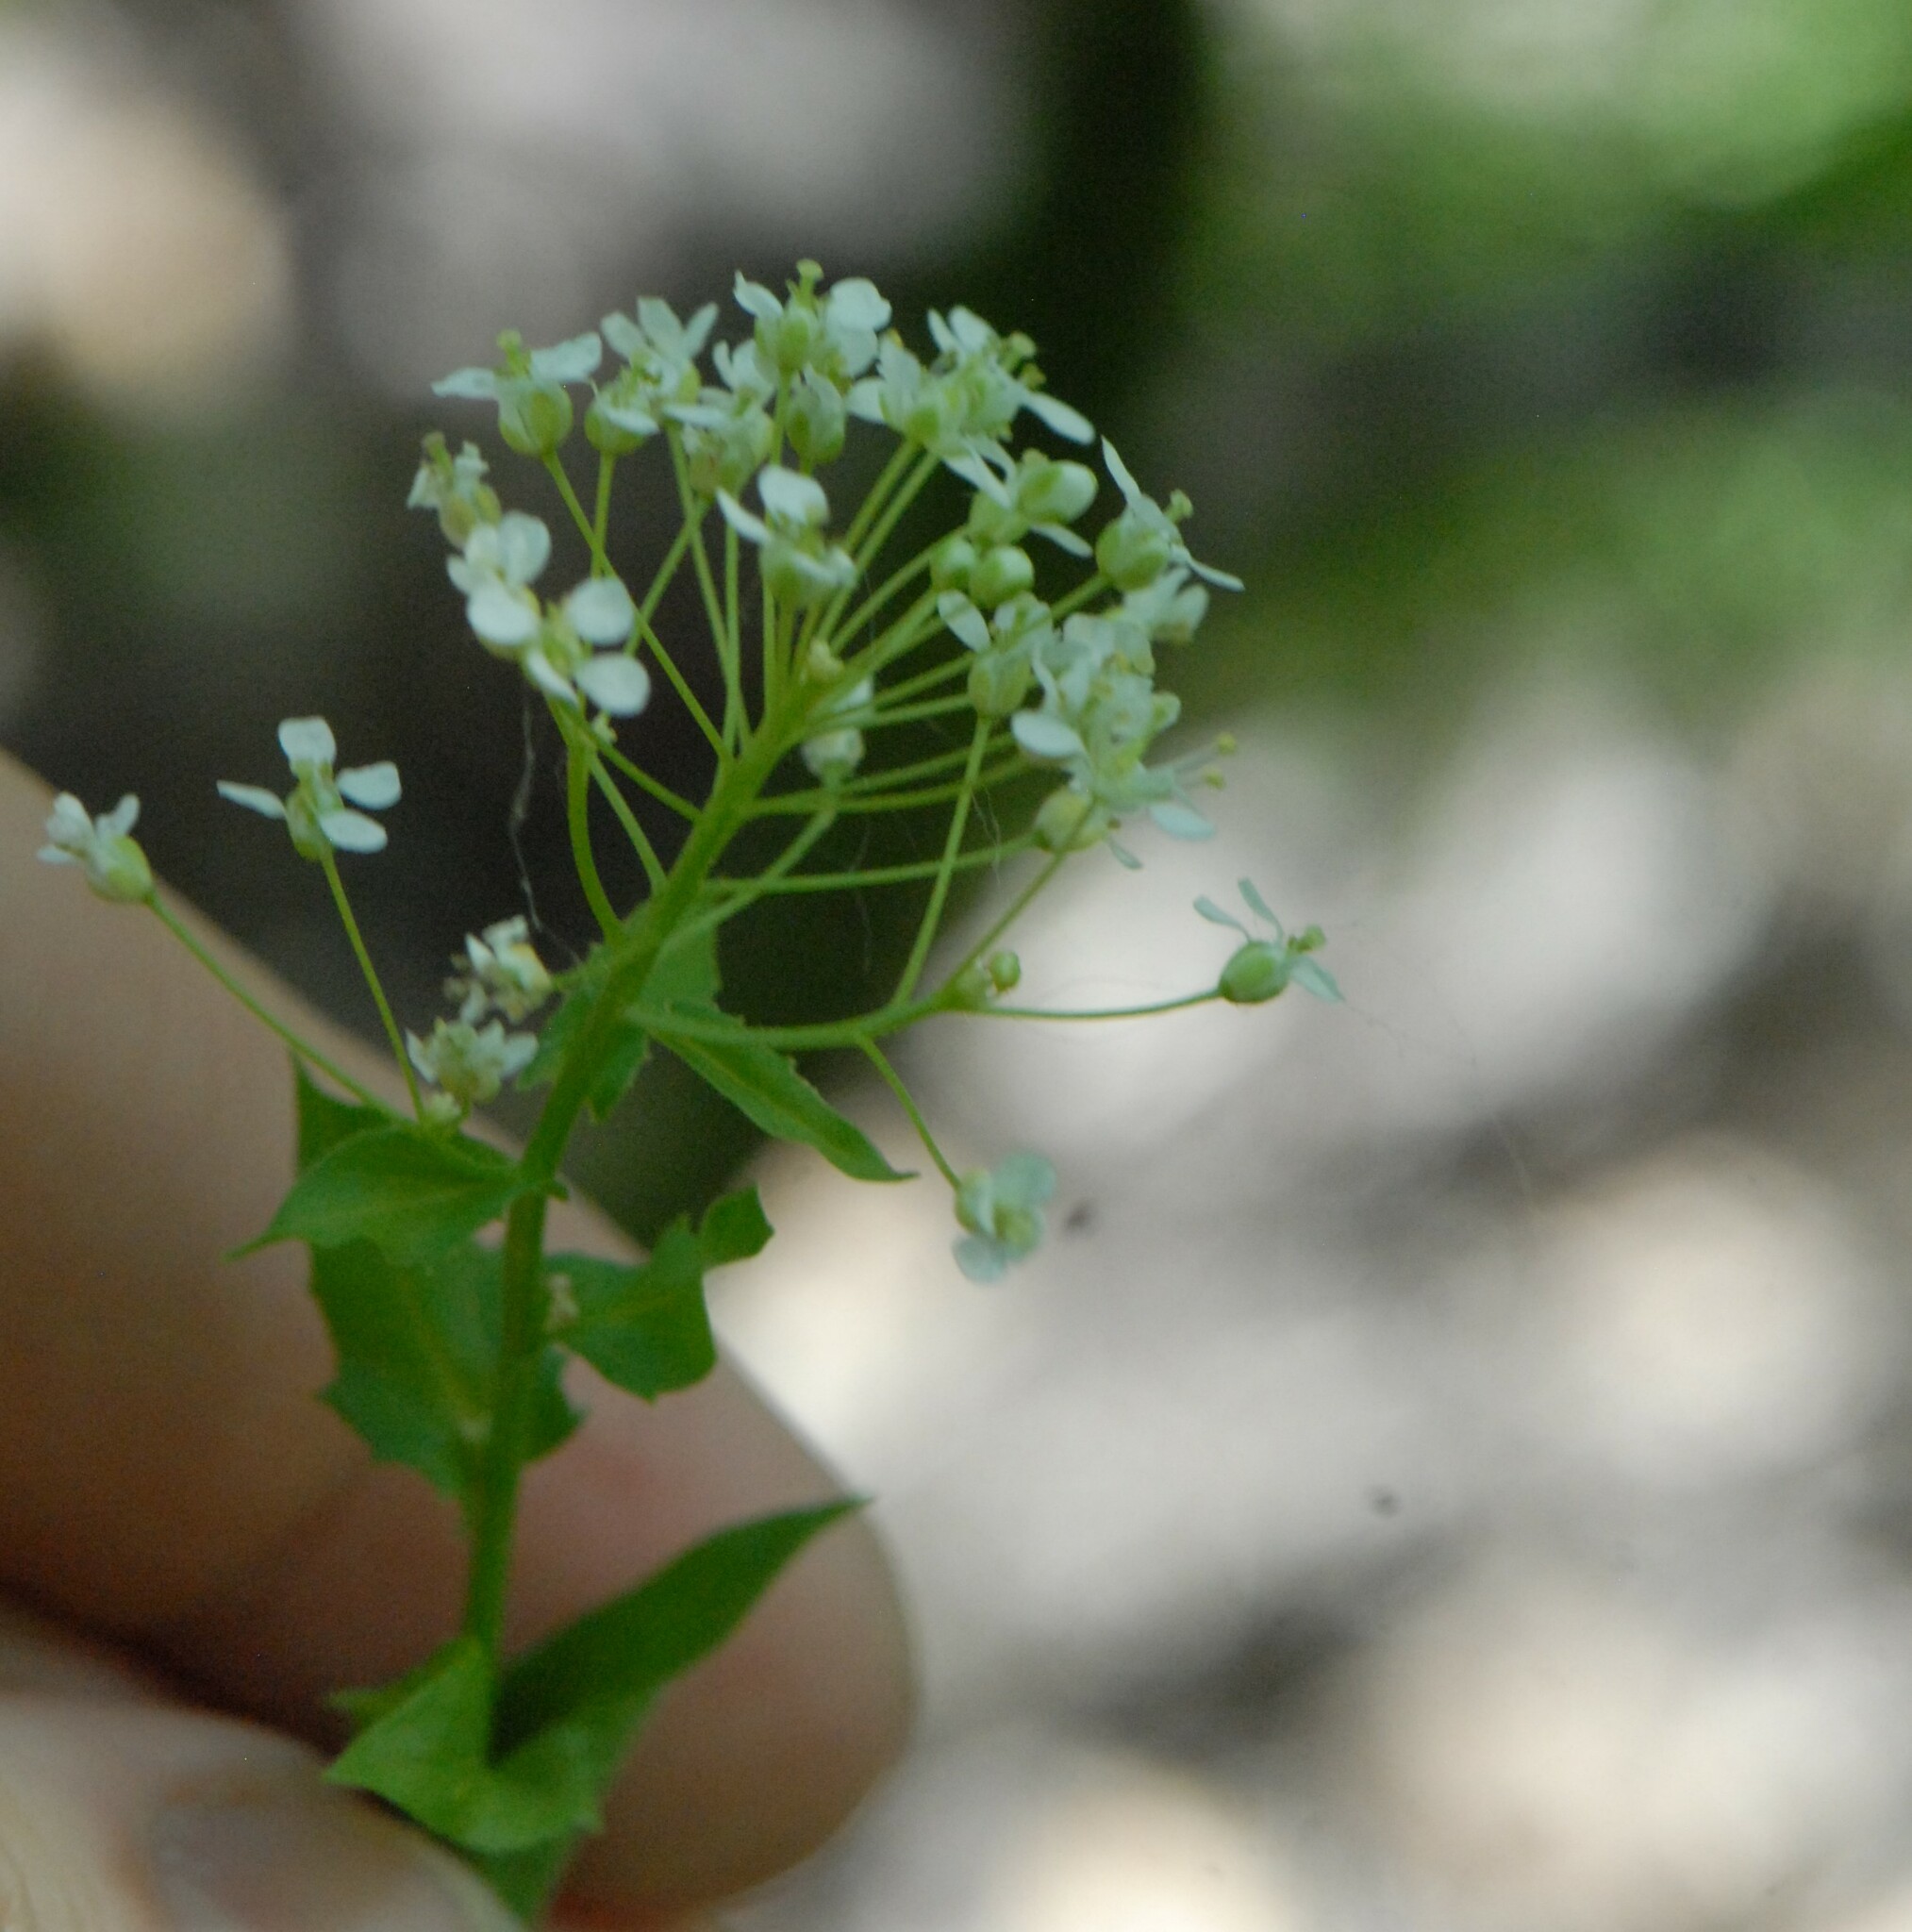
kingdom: Plantae
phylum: Tracheophyta
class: Magnoliopsida
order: Brassicales
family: Brassicaceae
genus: Lepidium
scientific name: Lepidium draba
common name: Hoary cress
